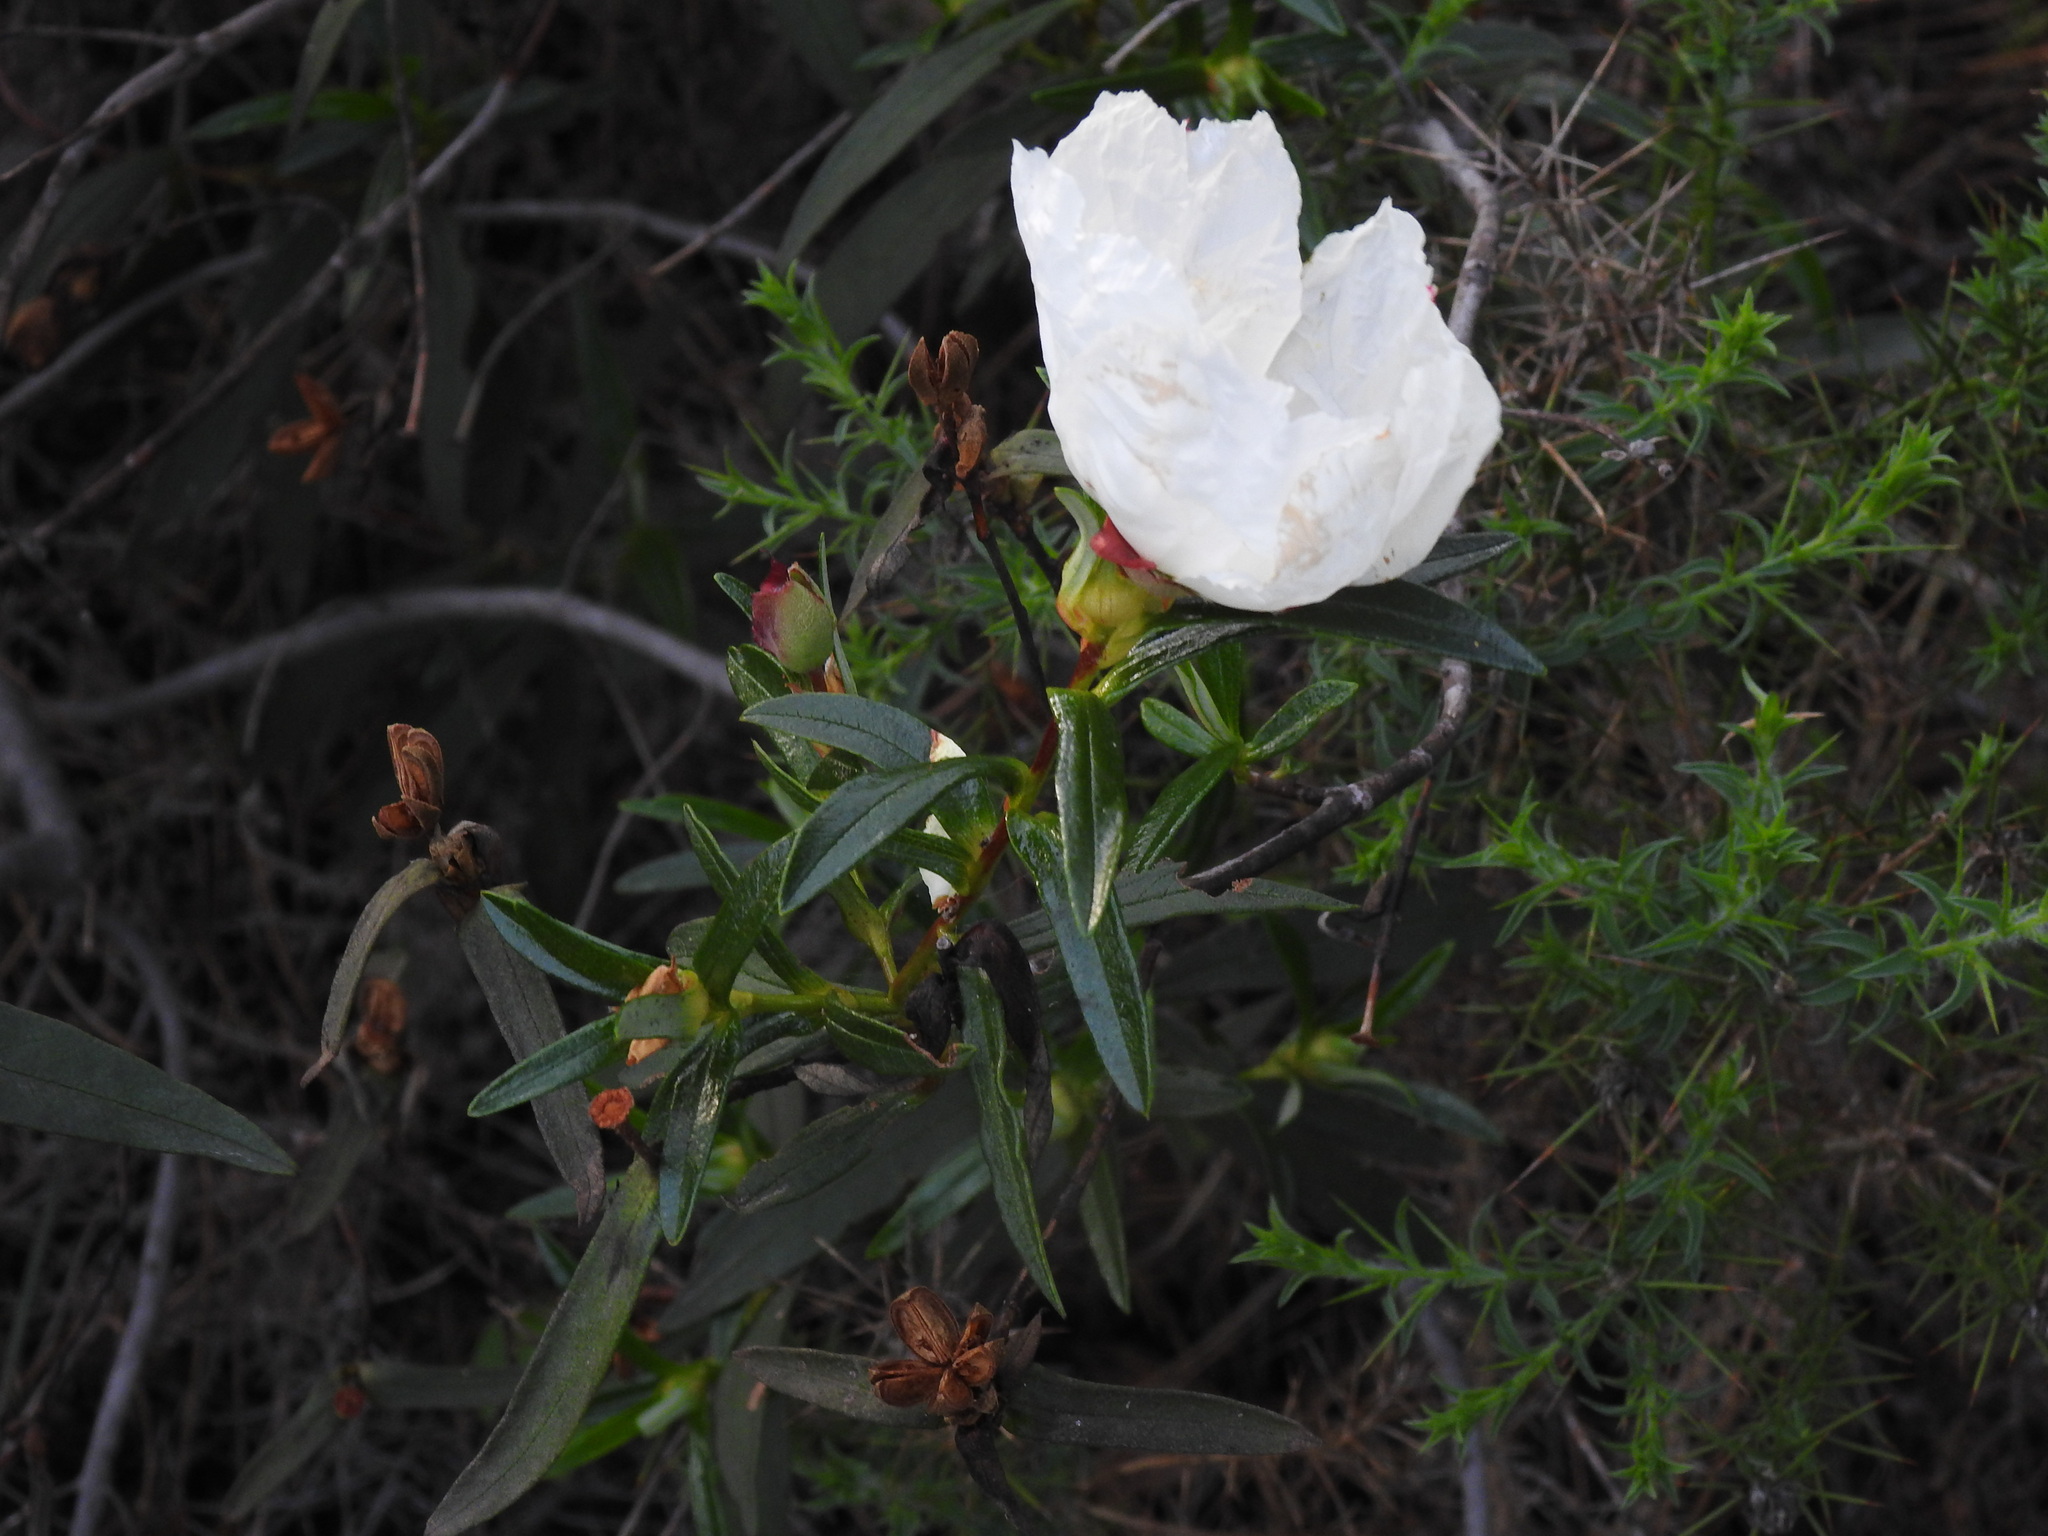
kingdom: Plantae
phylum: Tracheophyta
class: Magnoliopsida
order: Malvales
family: Cistaceae
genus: Cistus
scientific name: Cistus ladanifer
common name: Common gum cistus
